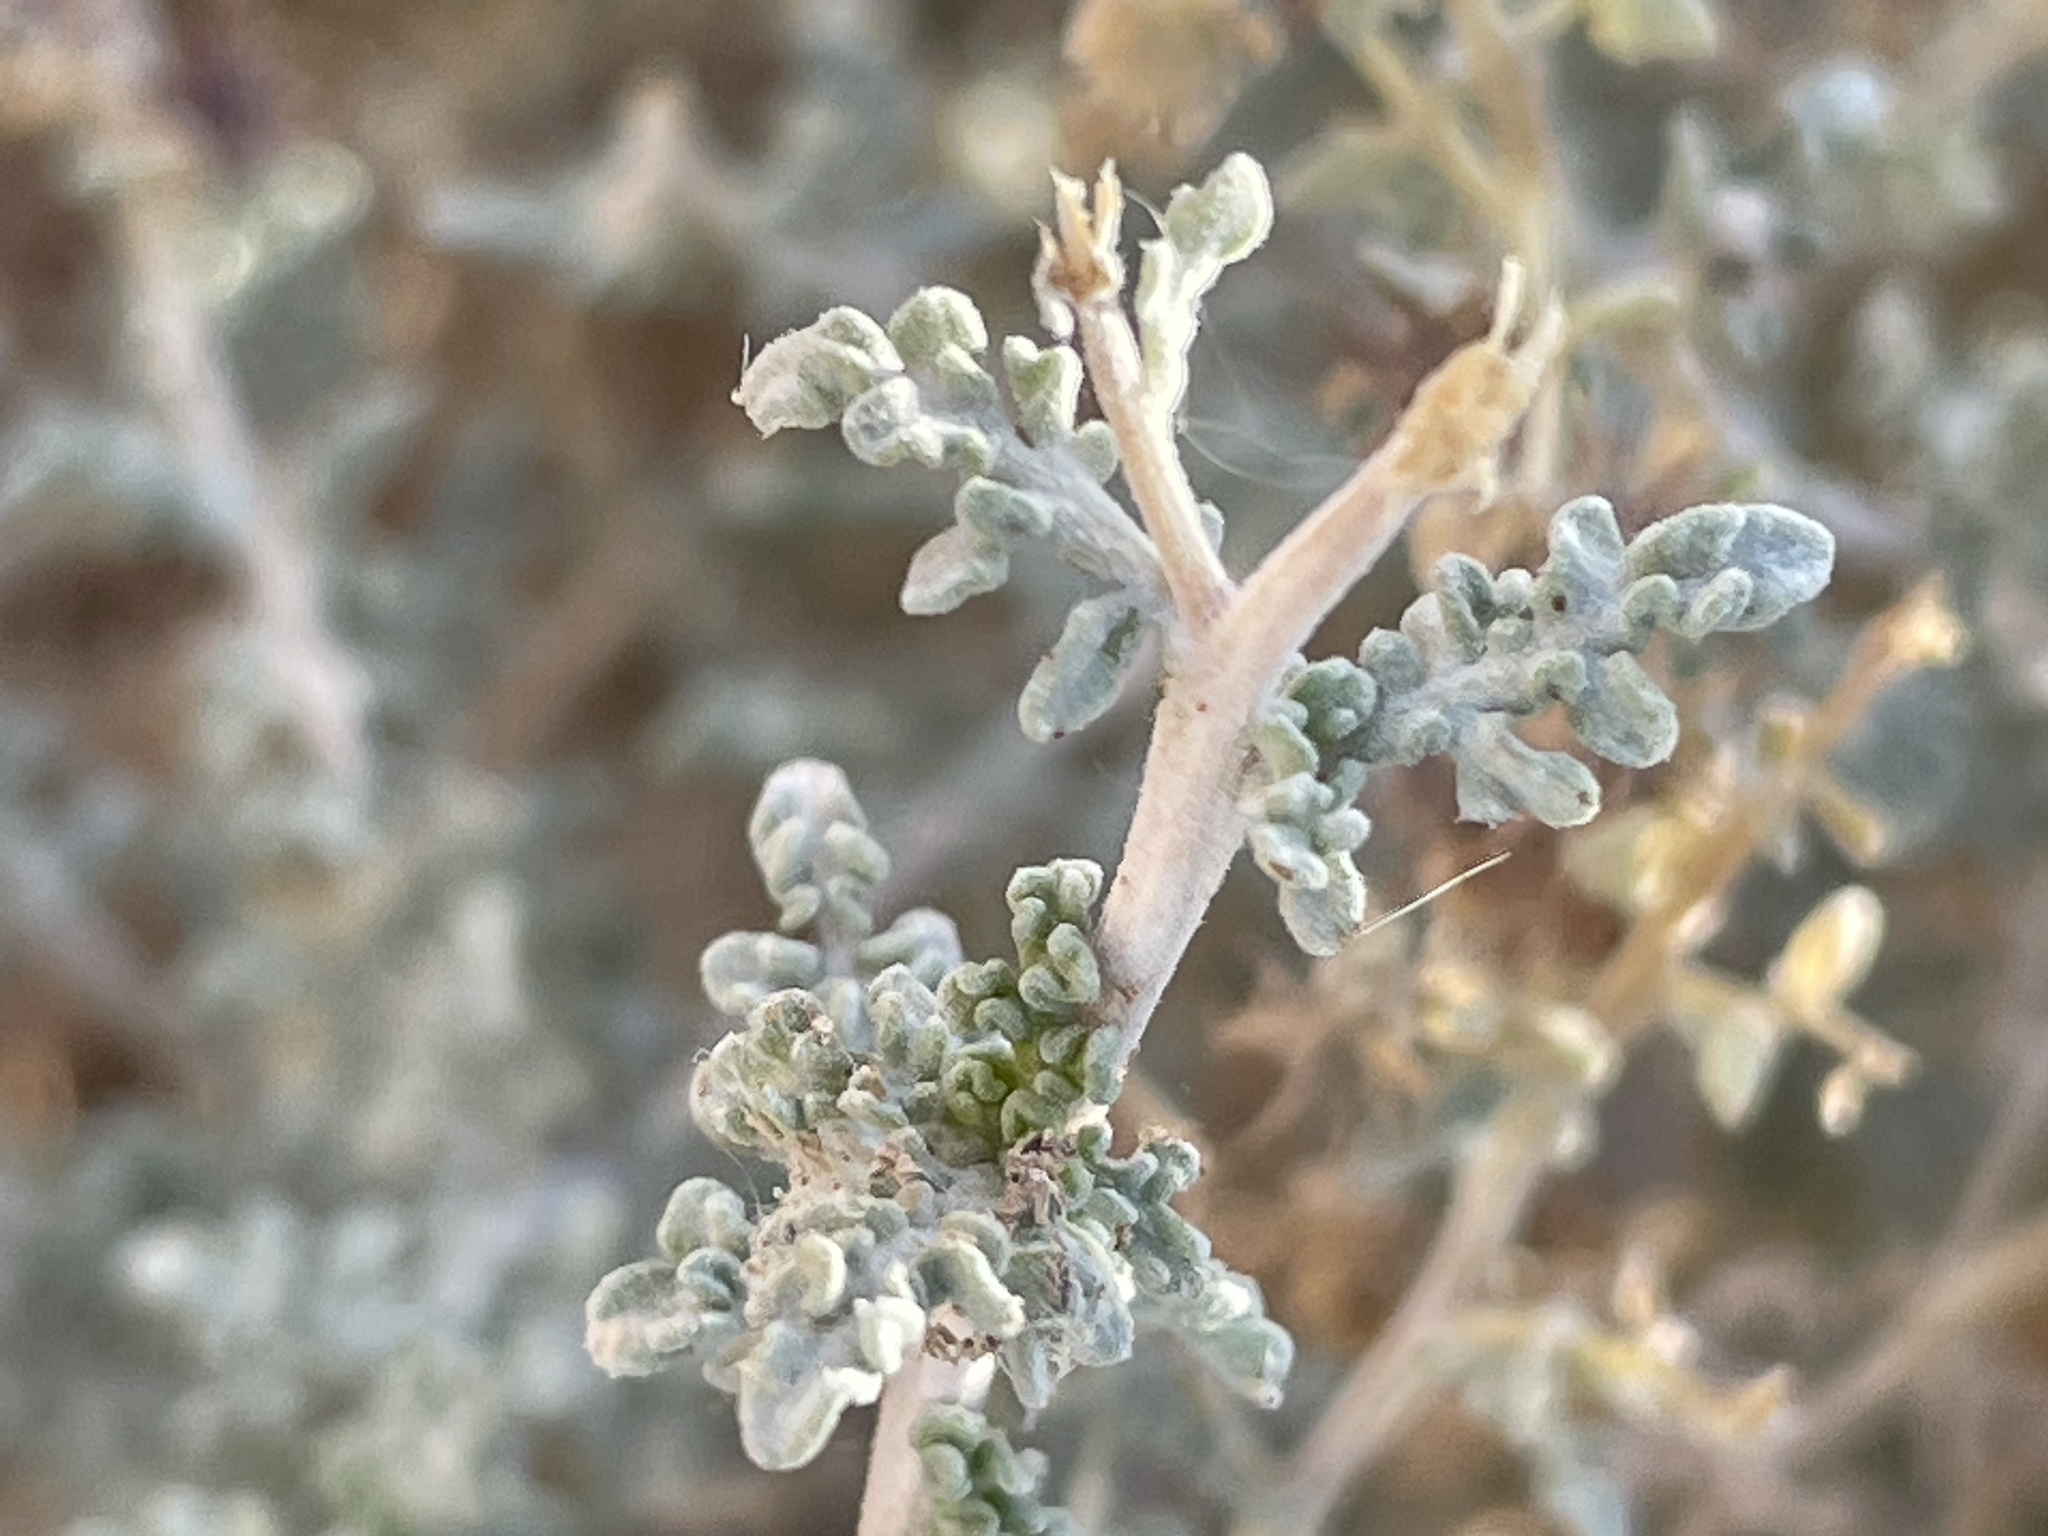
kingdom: Plantae
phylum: Tracheophyta
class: Magnoliopsida
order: Asterales
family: Asteraceae
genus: Ambrosia
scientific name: Ambrosia dumosa
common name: Bur-sage
